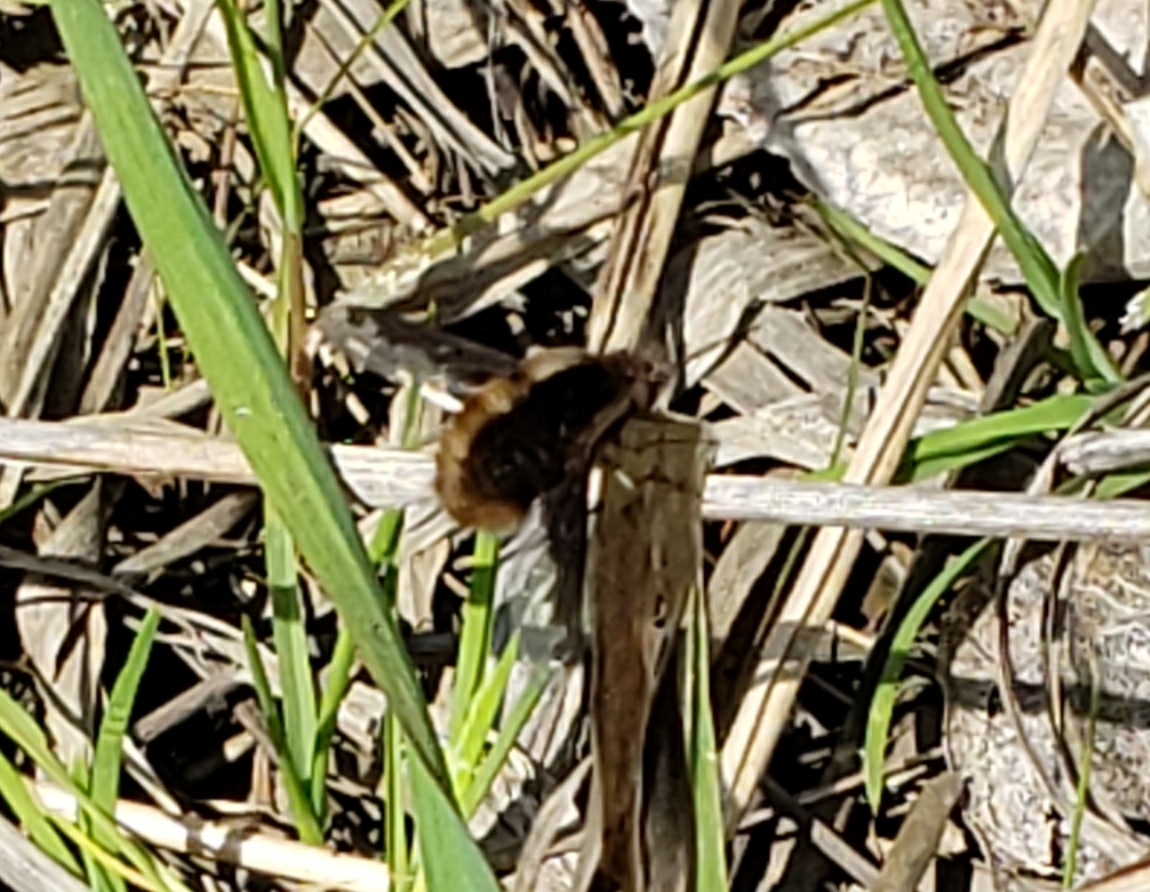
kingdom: Animalia
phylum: Arthropoda
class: Insecta
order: Diptera
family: Bombyliidae
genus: Bombylius
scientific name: Bombylius major
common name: Bee fly
